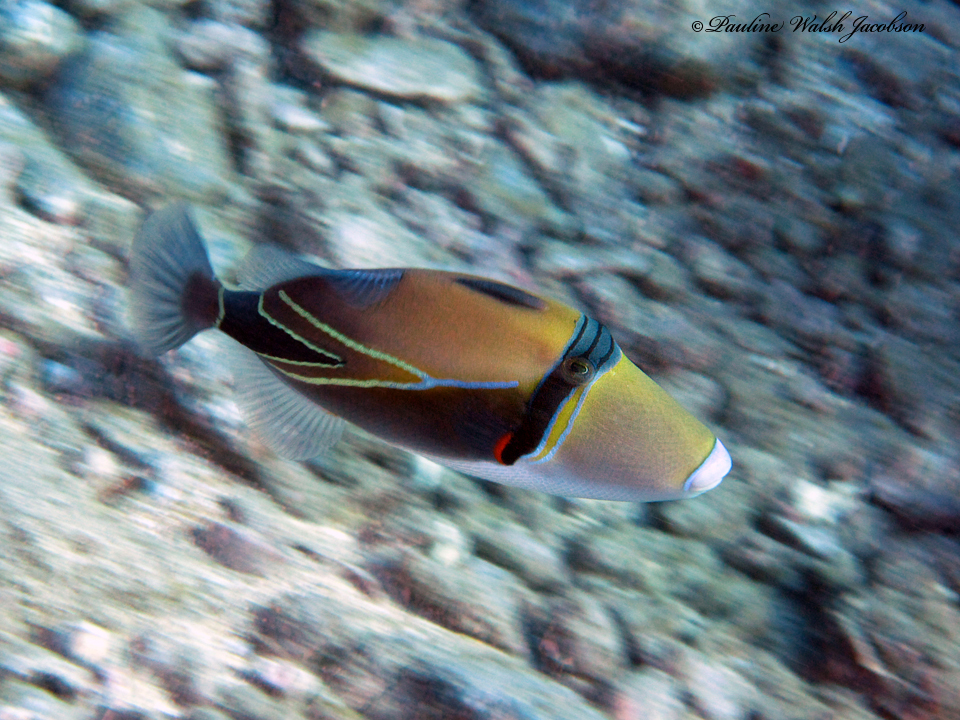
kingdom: Animalia
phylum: Chordata
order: Tetraodontiformes
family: Balistidae
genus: Rhinecanthus
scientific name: Rhinecanthus rectangulus
